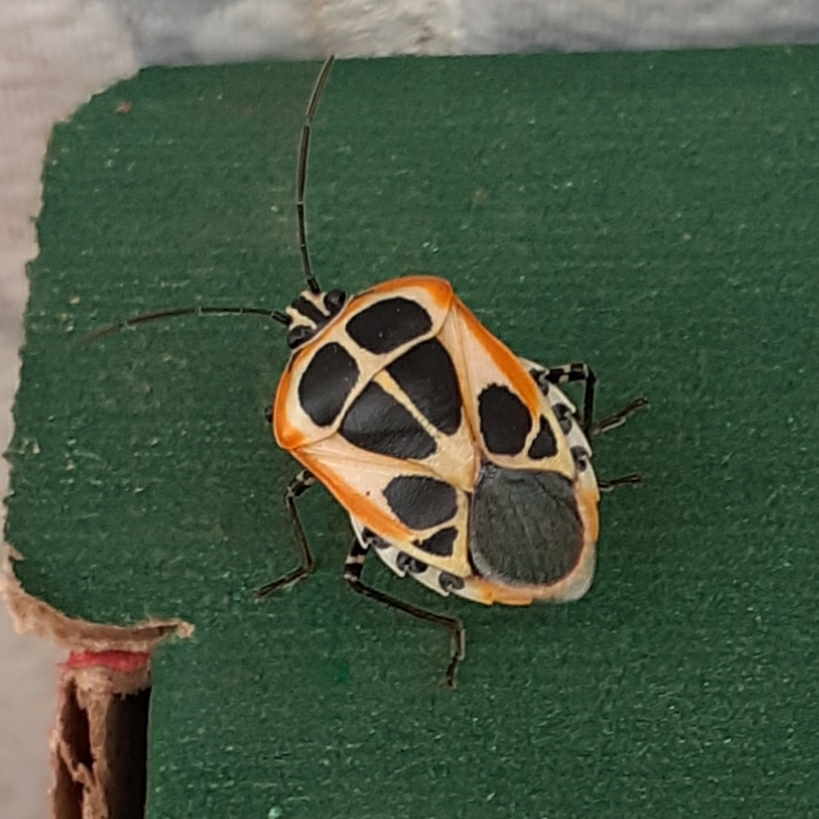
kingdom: Animalia
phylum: Arthropoda
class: Insecta
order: Hemiptera
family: Pentatomidae
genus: Runibia
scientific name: Runibia perspicua
